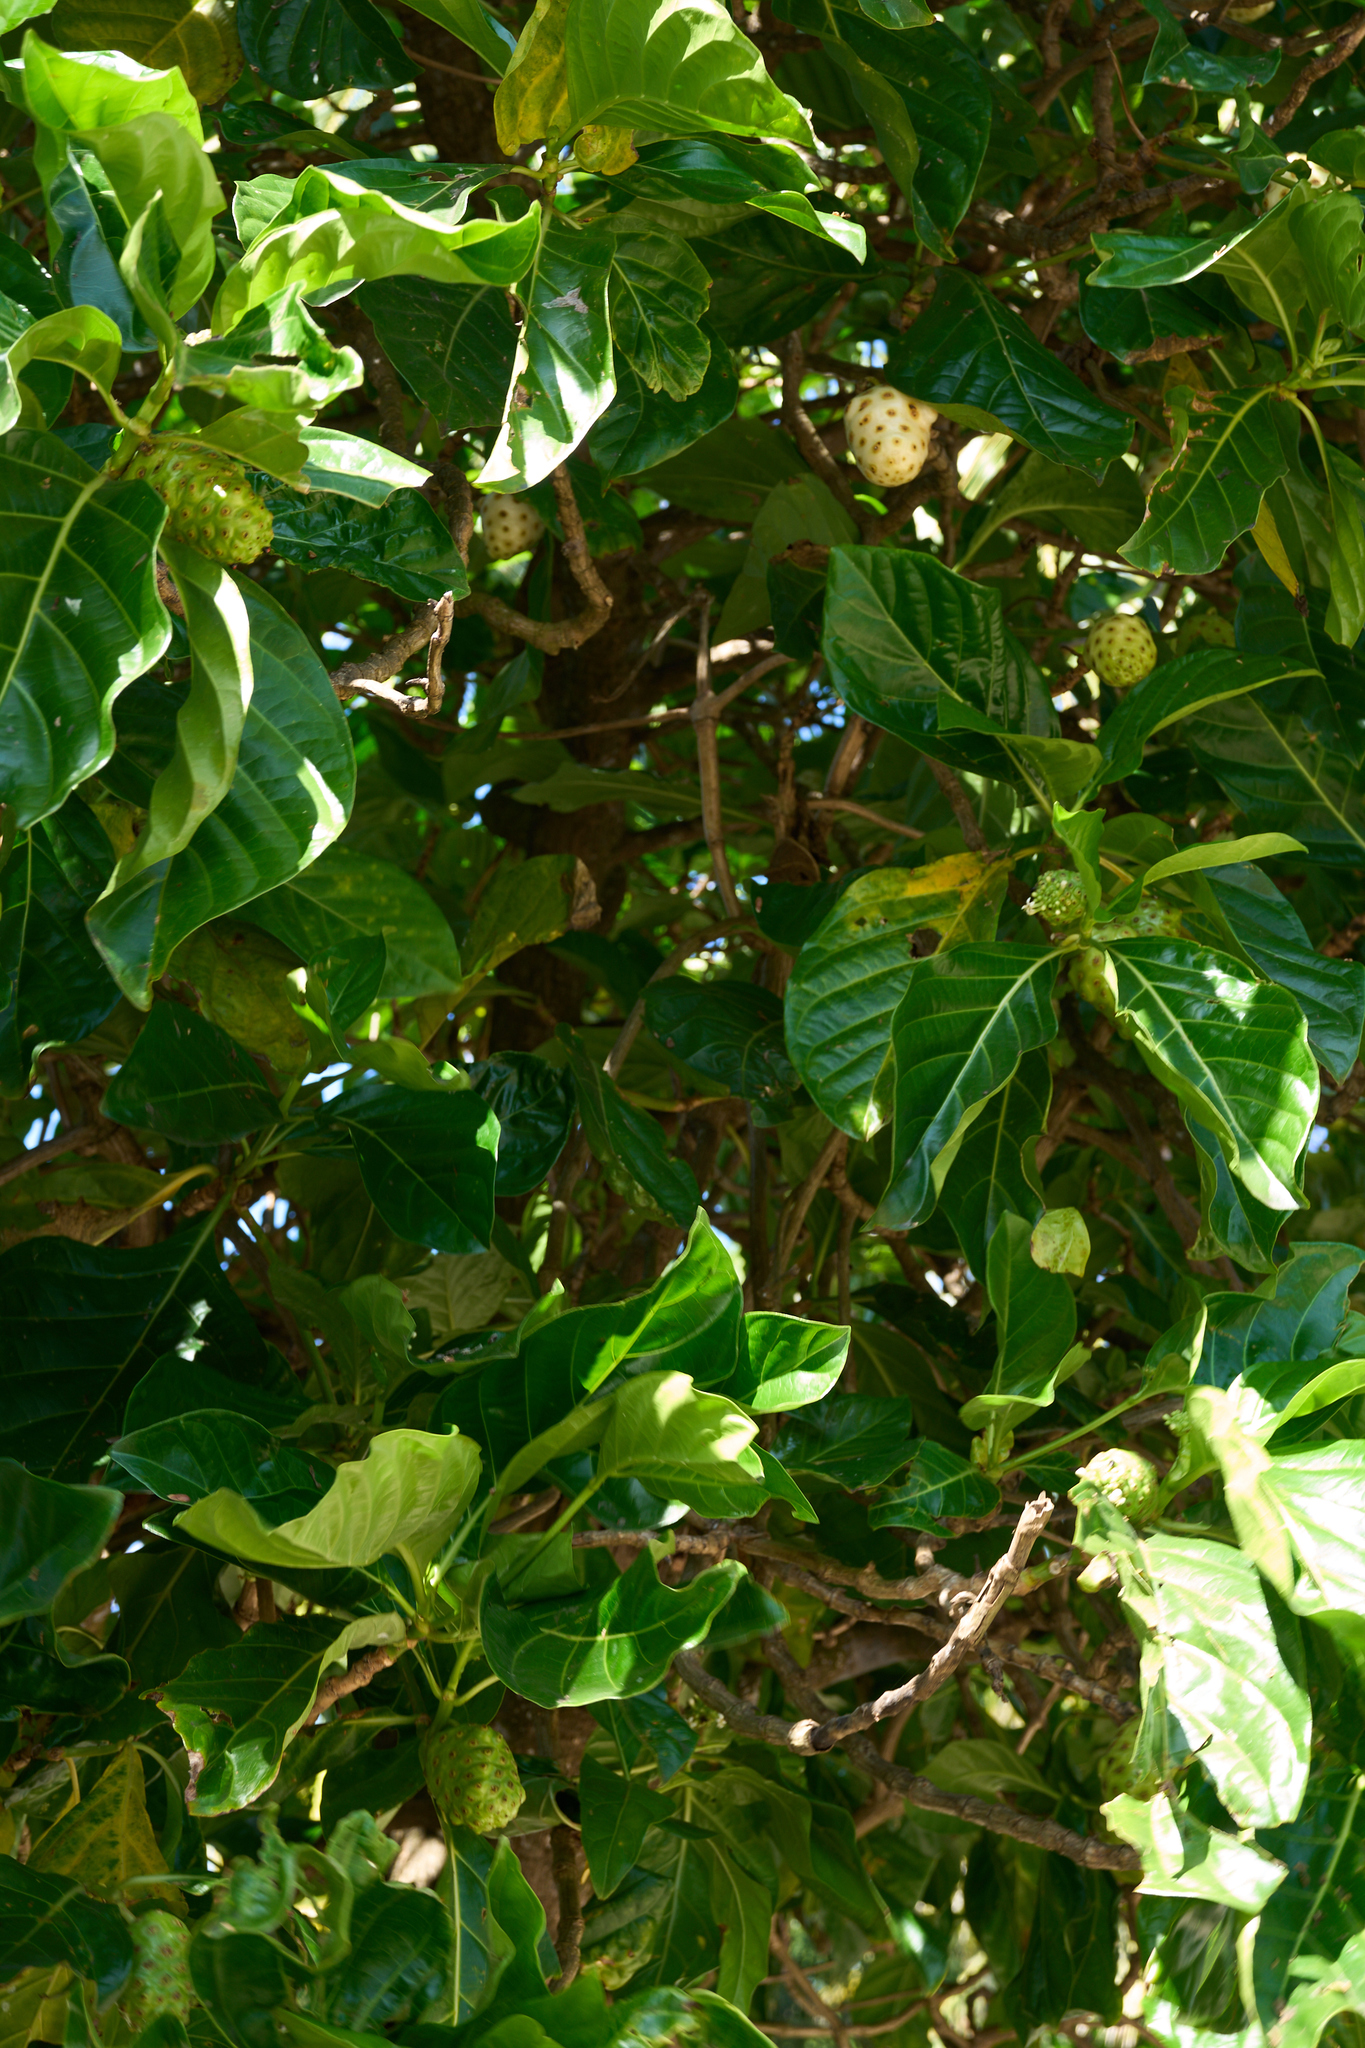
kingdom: Plantae
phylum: Tracheophyta
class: Magnoliopsida
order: Gentianales
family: Rubiaceae
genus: Morinda
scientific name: Morinda citrifolia
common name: Indian-mulberry
